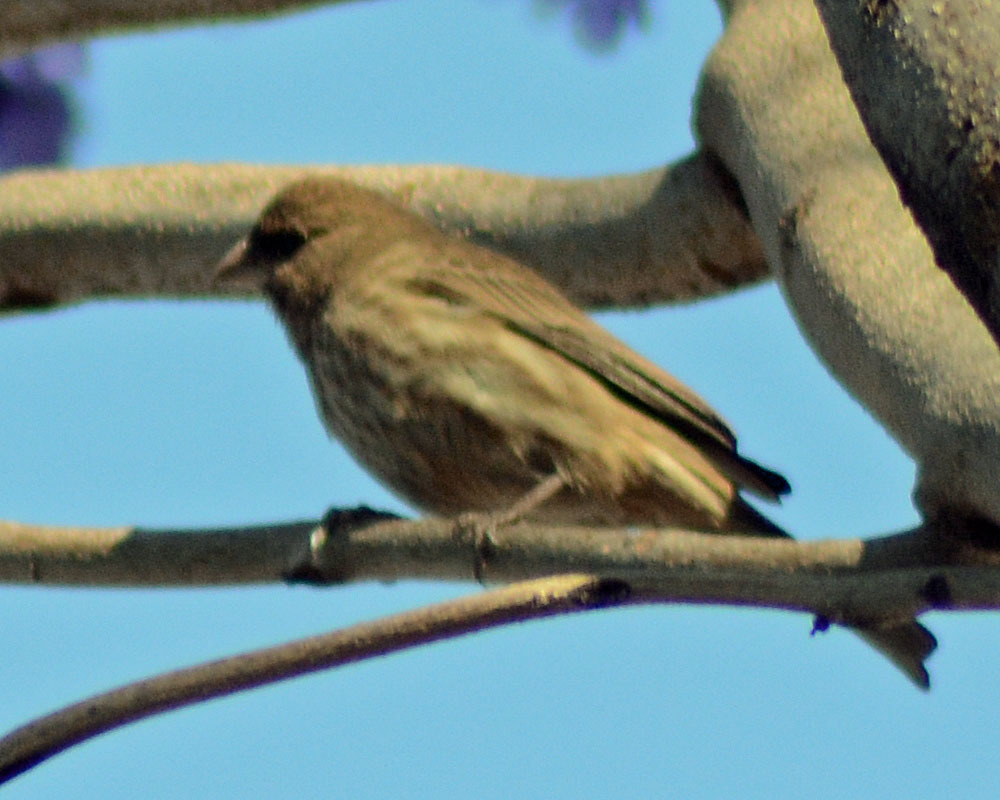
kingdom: Animalia
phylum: Chordata
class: Aves
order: Passeriformes
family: Fringillidae
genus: Haemorhous
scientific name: Haemorhous mexicanus
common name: House finch
